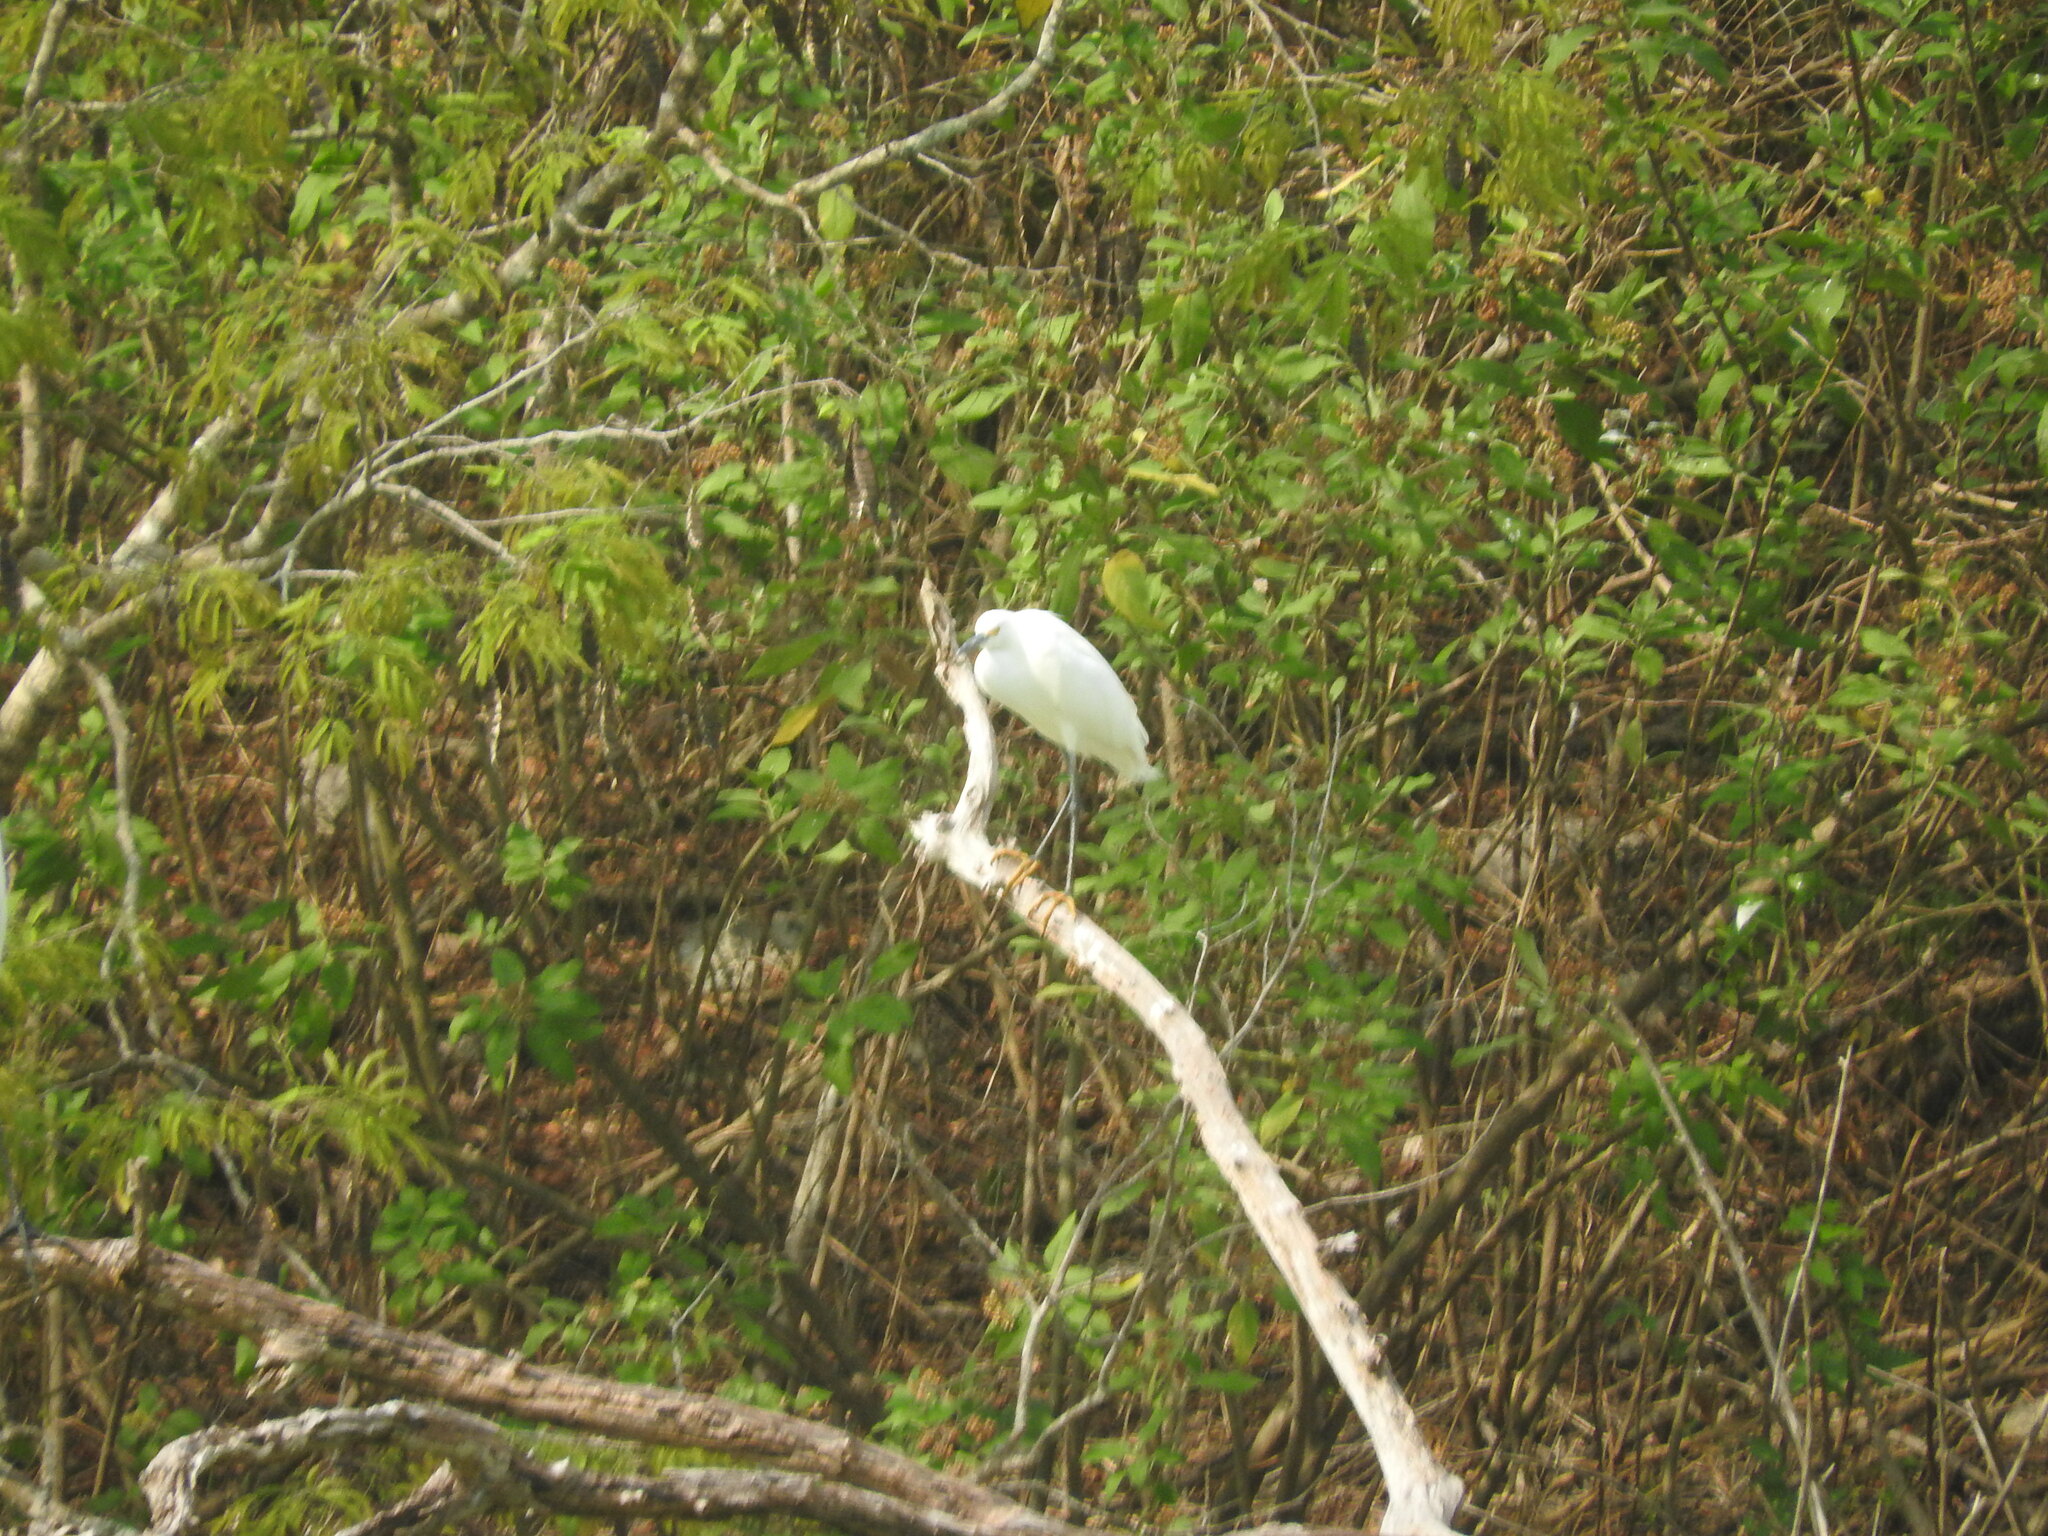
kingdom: Animalia
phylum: Chordata
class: Aves
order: Pelecaniformes
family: Ardeidae
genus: Egretta
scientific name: Egretta thula
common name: Snowy egret
